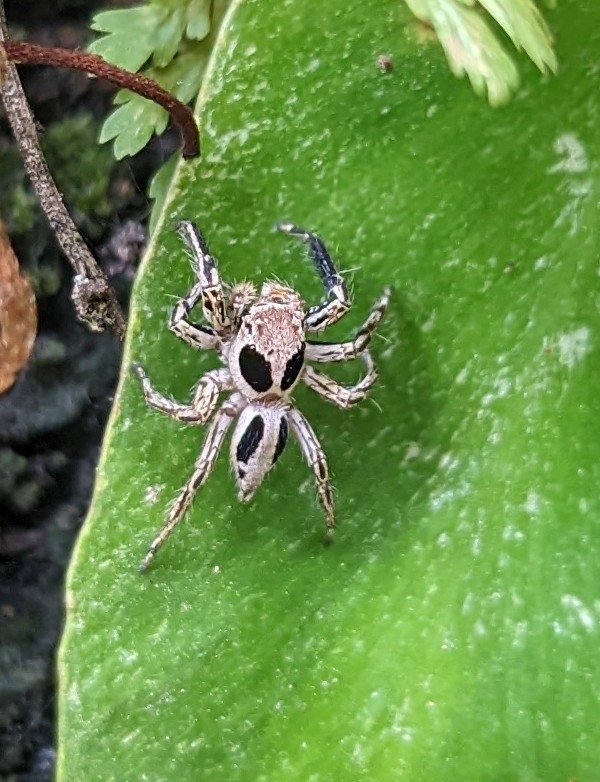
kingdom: Animalia
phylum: Arthropoda
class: Arachnida
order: Araneae
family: Salticidae
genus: Plexippus
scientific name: Plexippus petersi
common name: Jumping spider
